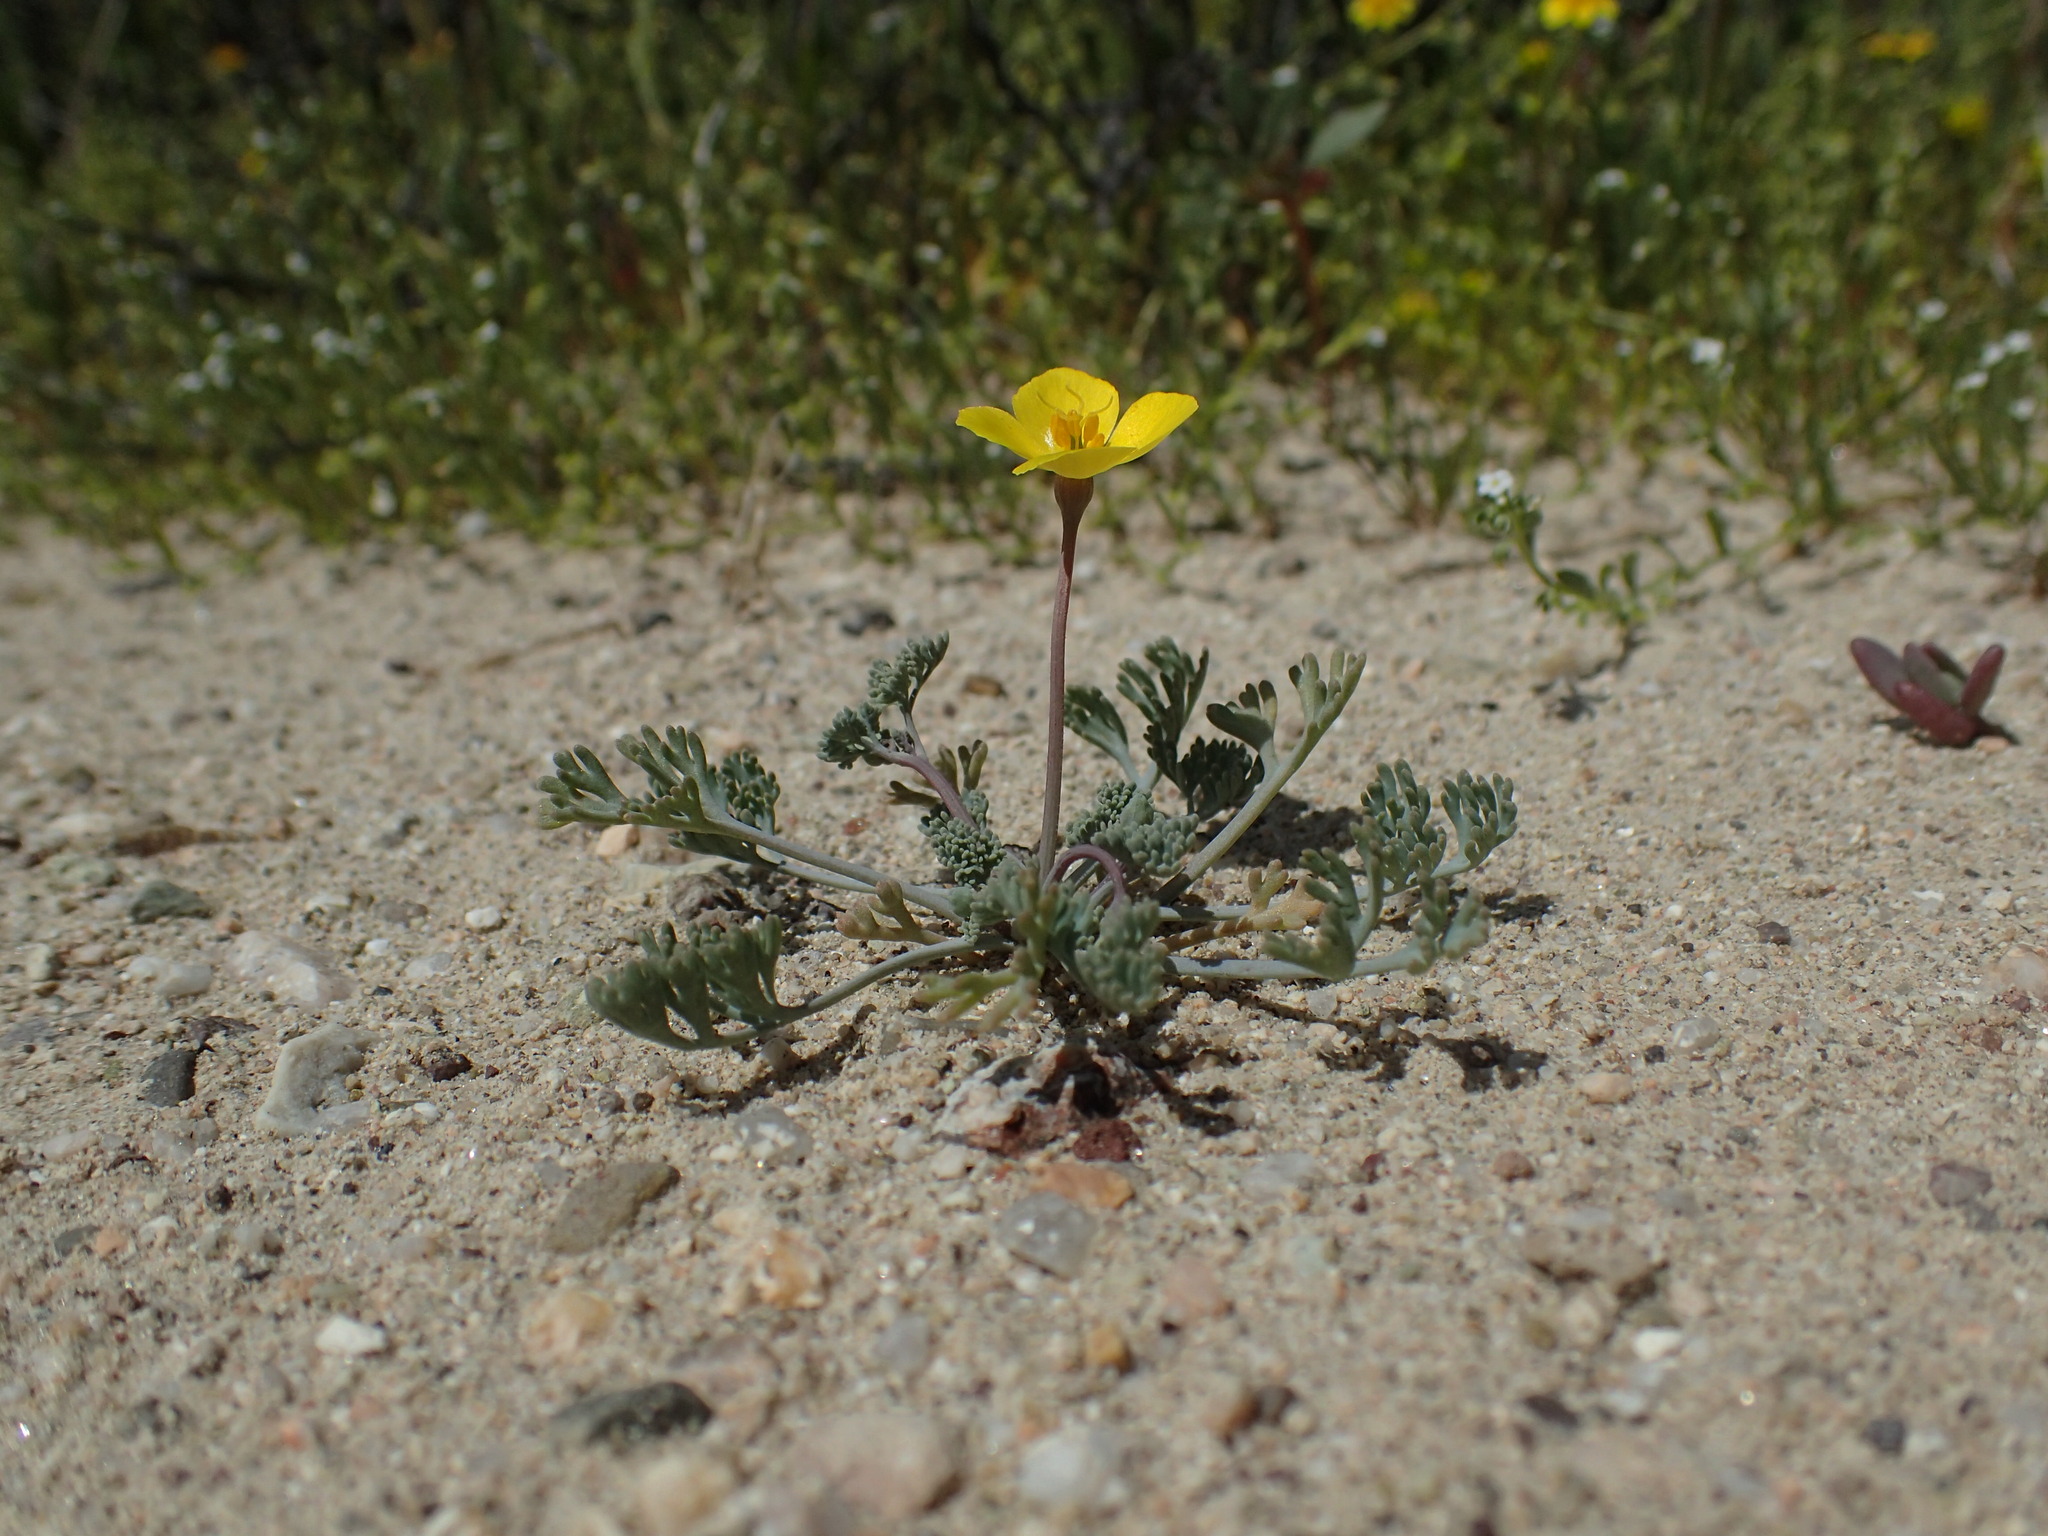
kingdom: Plantae
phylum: Tracheophyta
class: Magnoliopsida
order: Ranunculales
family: Papaveraceae
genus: Eschscholzia
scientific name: Eschscholzia minutiflora
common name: Small-flower california-poppy
